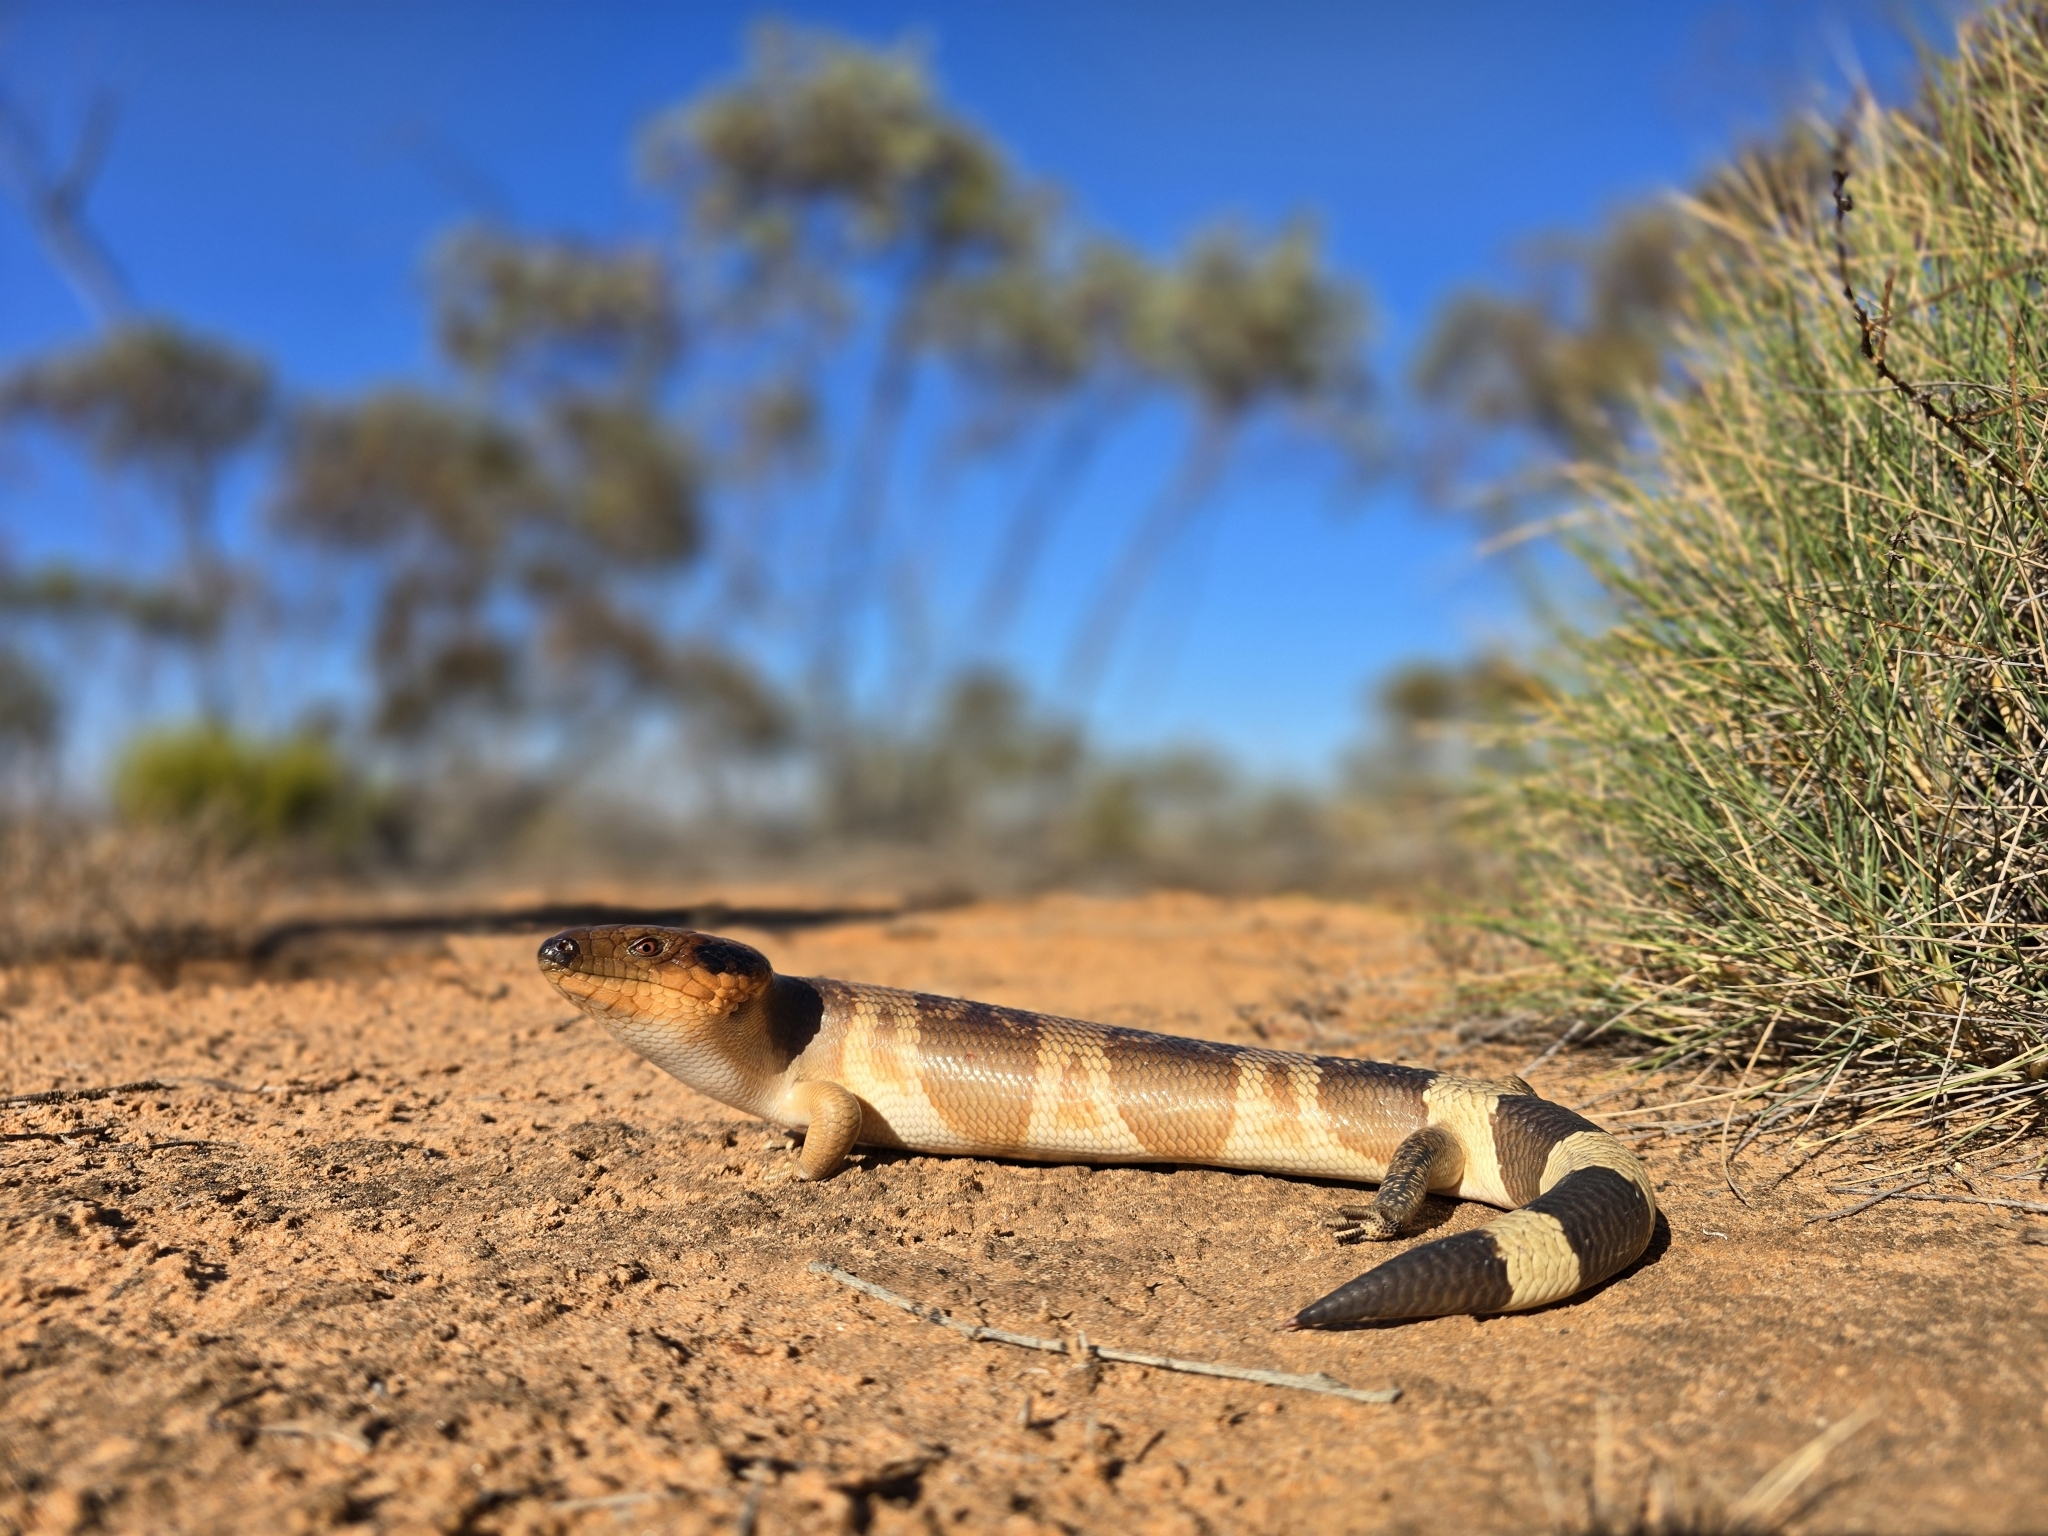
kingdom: Animalia
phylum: Chordata
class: Squamata
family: Scincidae
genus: Tiliqua
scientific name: Tiliqua occipitalis
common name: Western blue-tongued lizard
